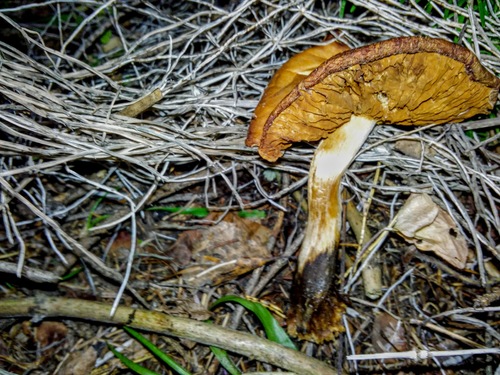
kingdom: Fungi
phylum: Basidiomycota
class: Agaricomycetes
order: Agaricales
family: Cortinariaceae
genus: Cortinarius
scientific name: Cortinarius
